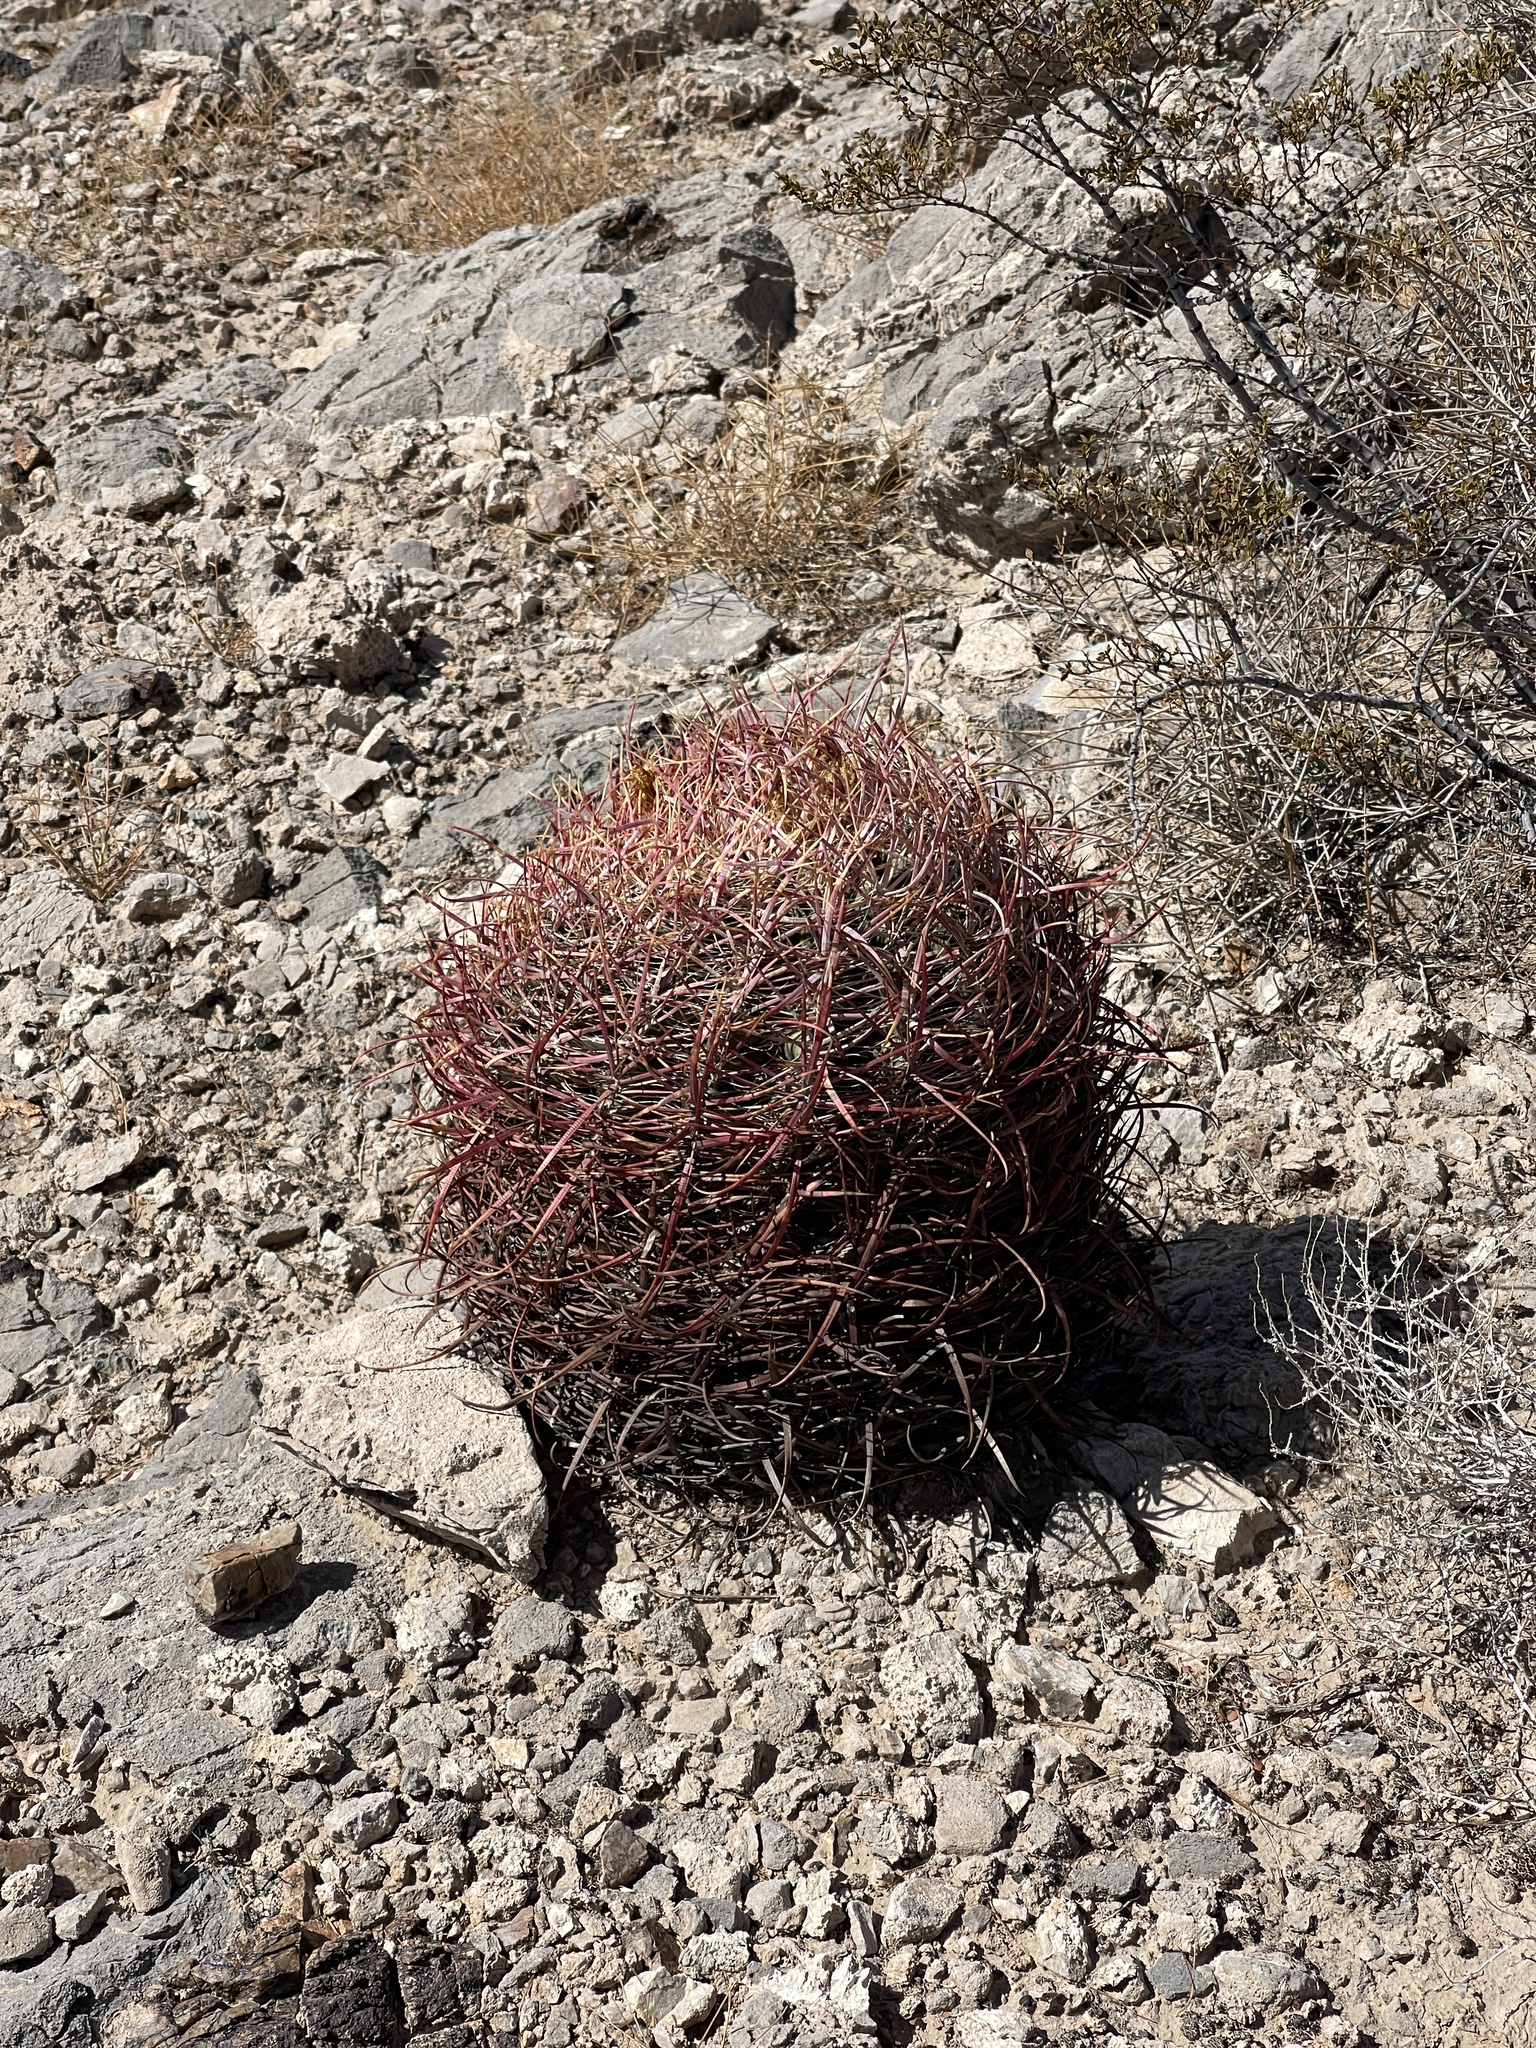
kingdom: Plantae
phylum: Tracheophyta
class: Magnoliopsida
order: Caryophyllales
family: Cactaceae
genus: Ferocactus
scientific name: Ferocactus cylindraceus
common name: California barrel cactus
